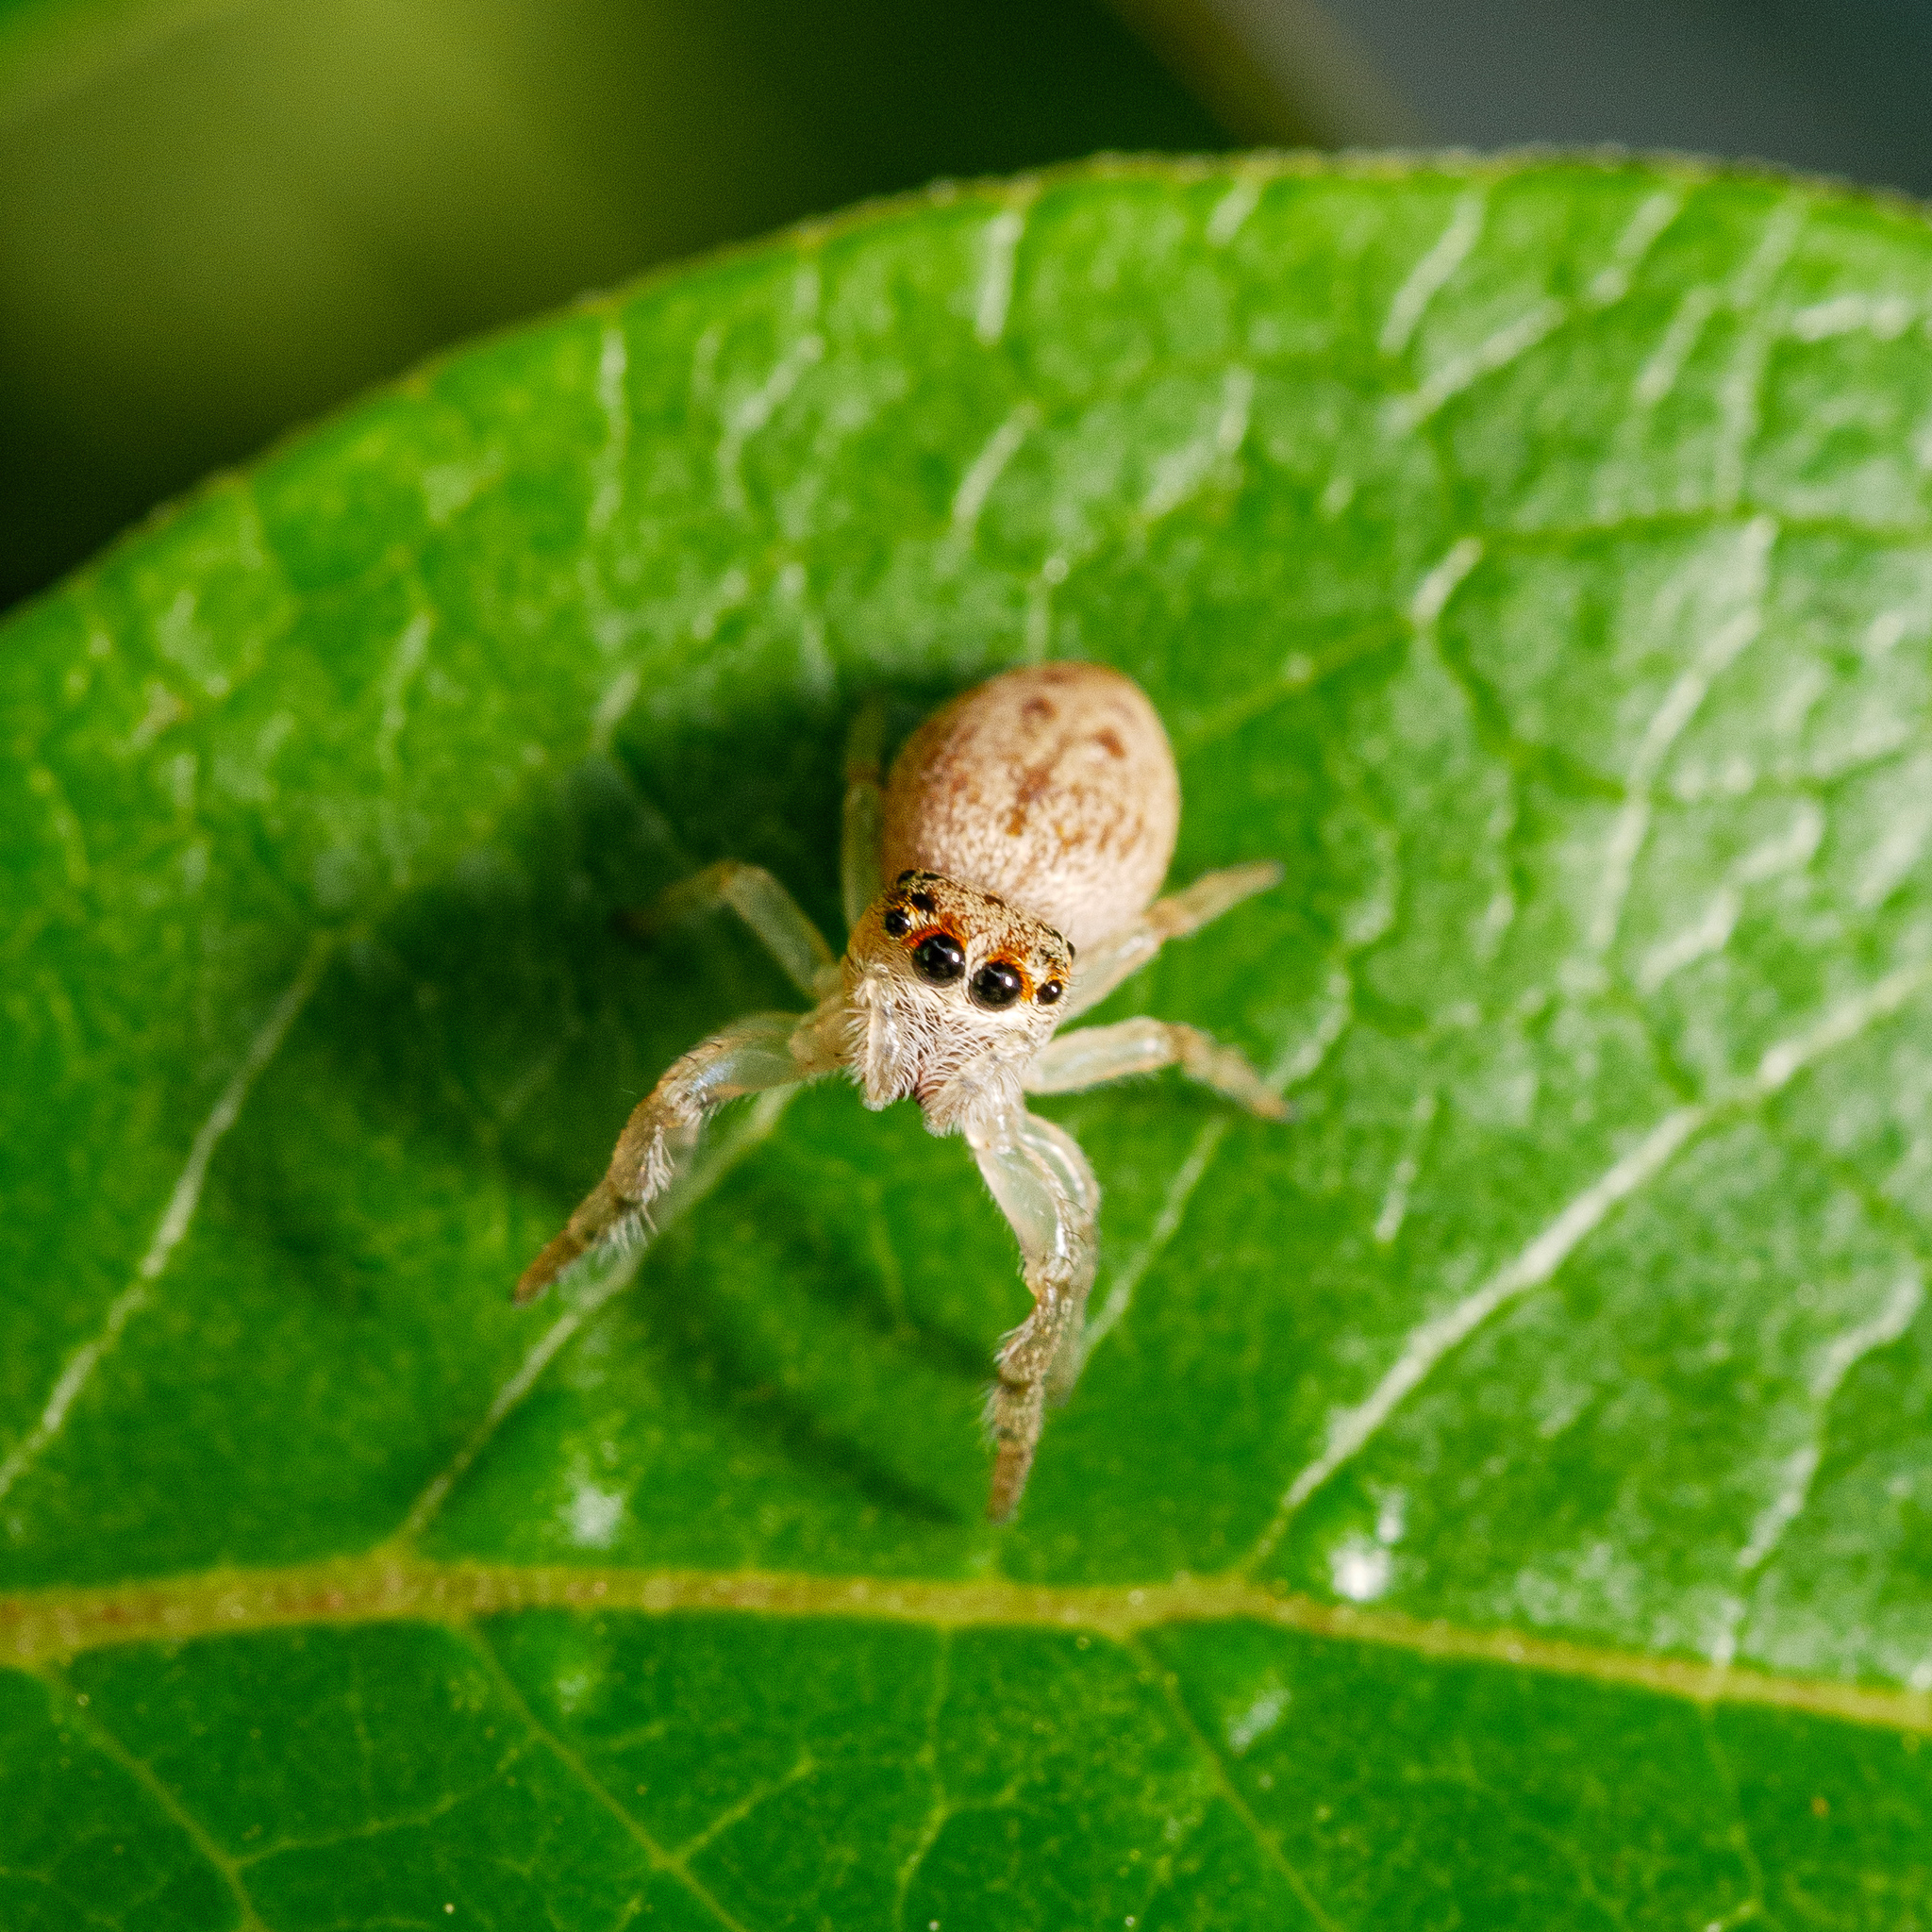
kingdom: Animalia
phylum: Arthropoda
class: Arachnida
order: Araneae
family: Salticidae
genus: Opisthoncus
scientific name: Opisthoncus polyphemus
